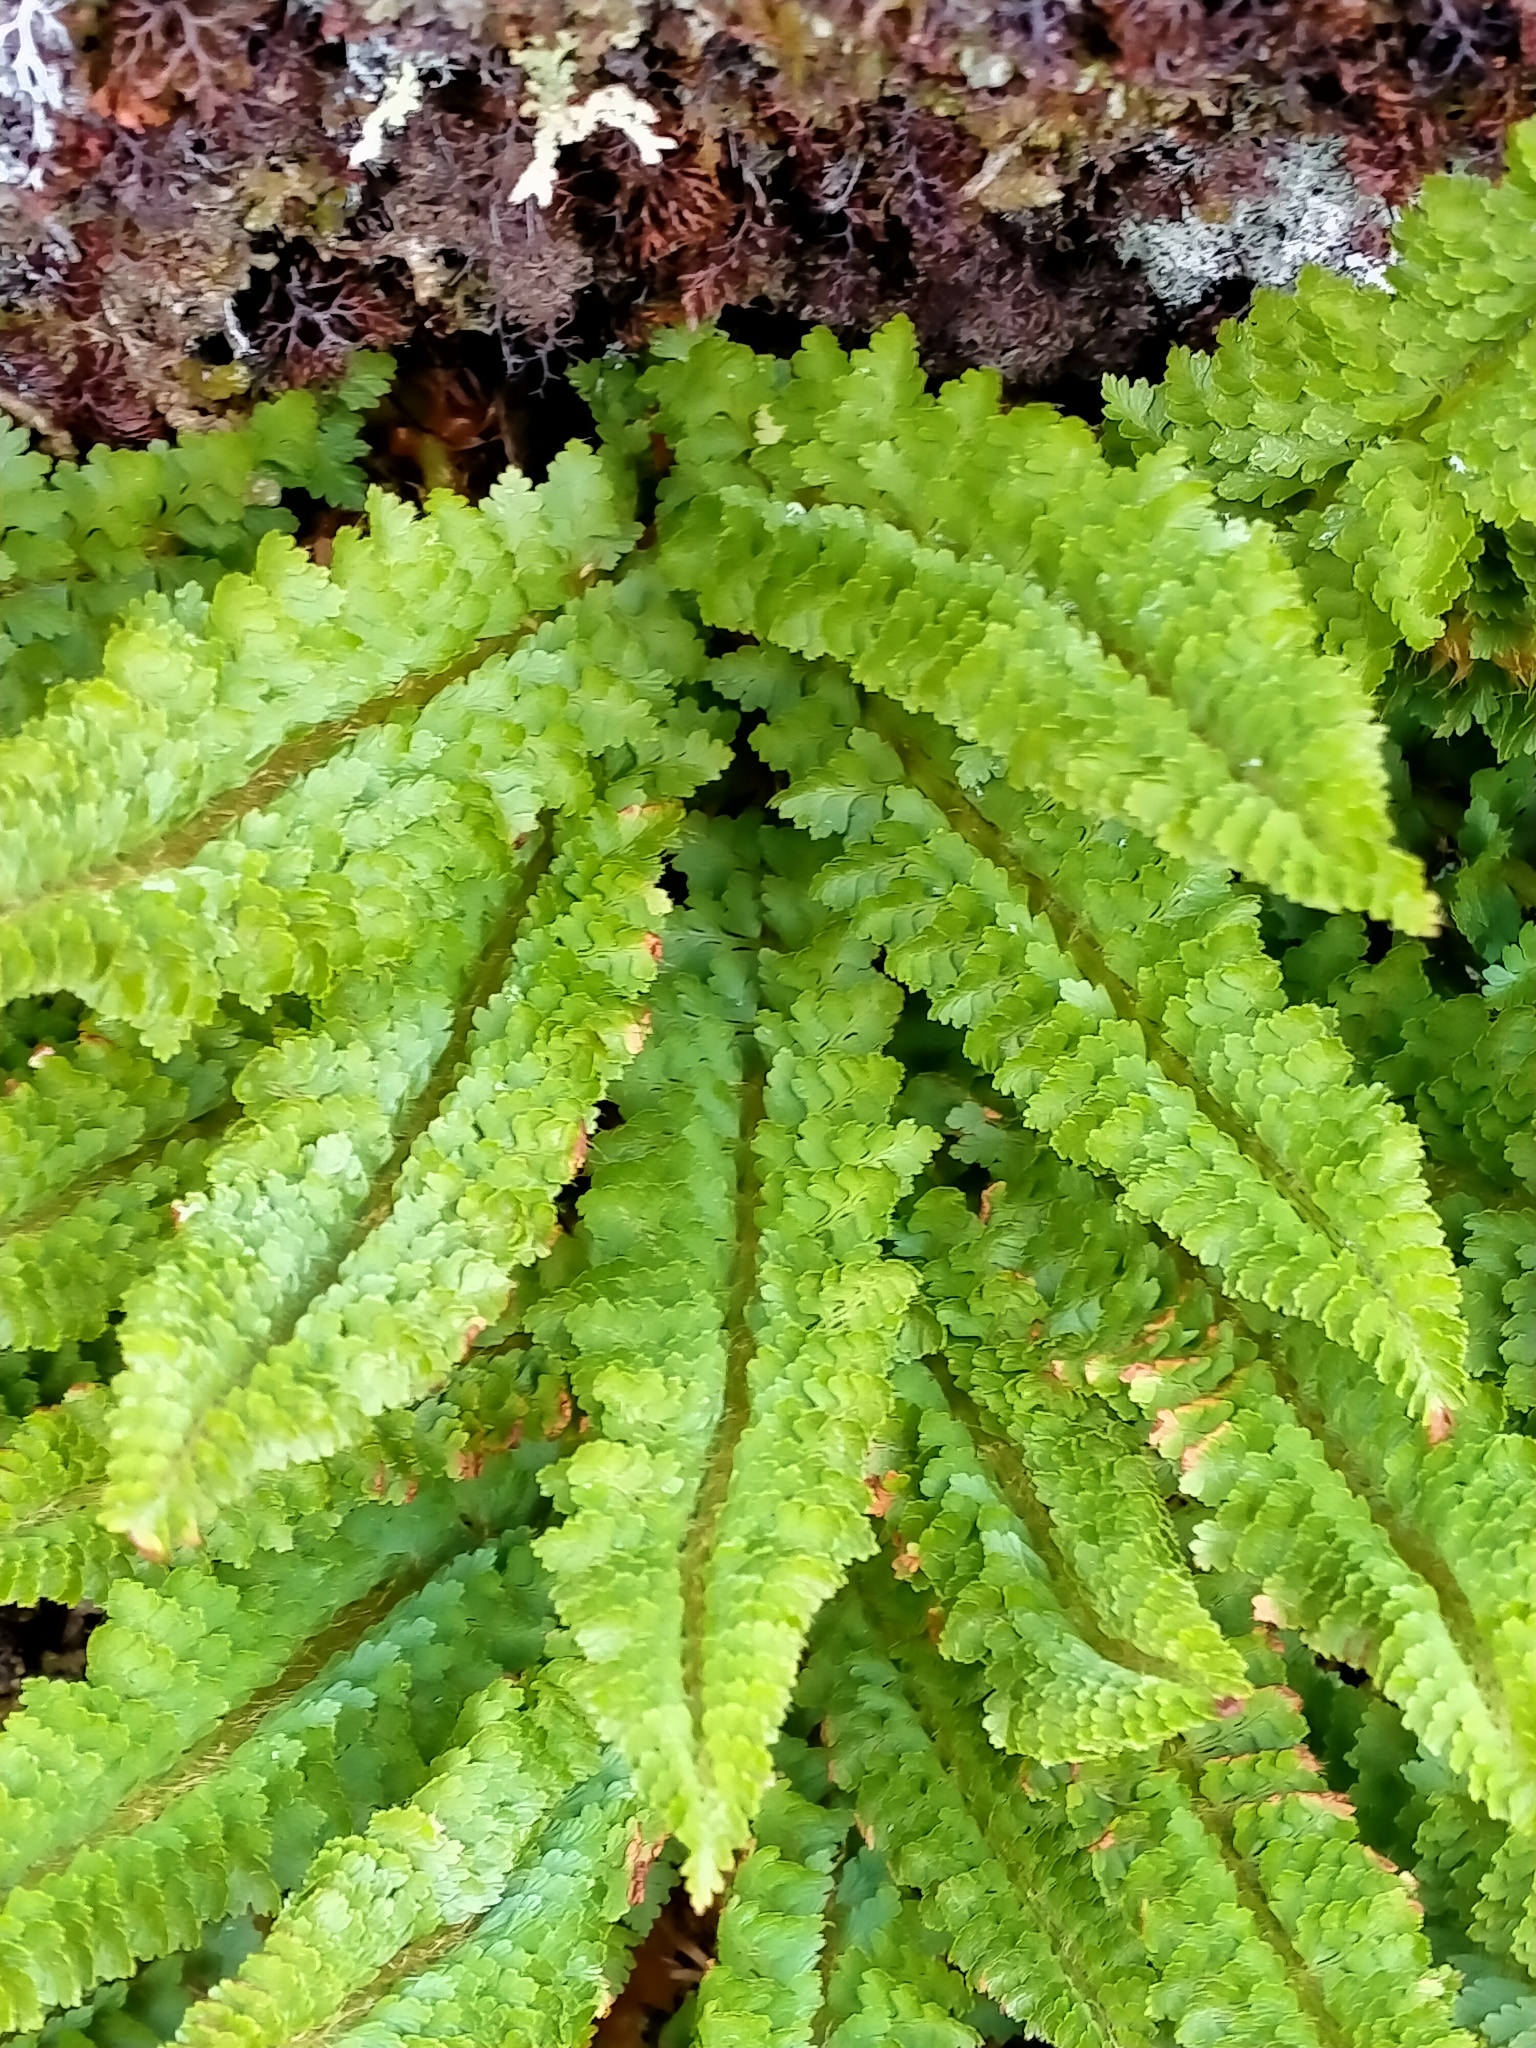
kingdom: Plantae
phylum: Tracheophyta
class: Polypodiopsida
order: Polypodiales
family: Dryopteridaceae
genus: Polystichum
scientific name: Polystichum cystostegia
